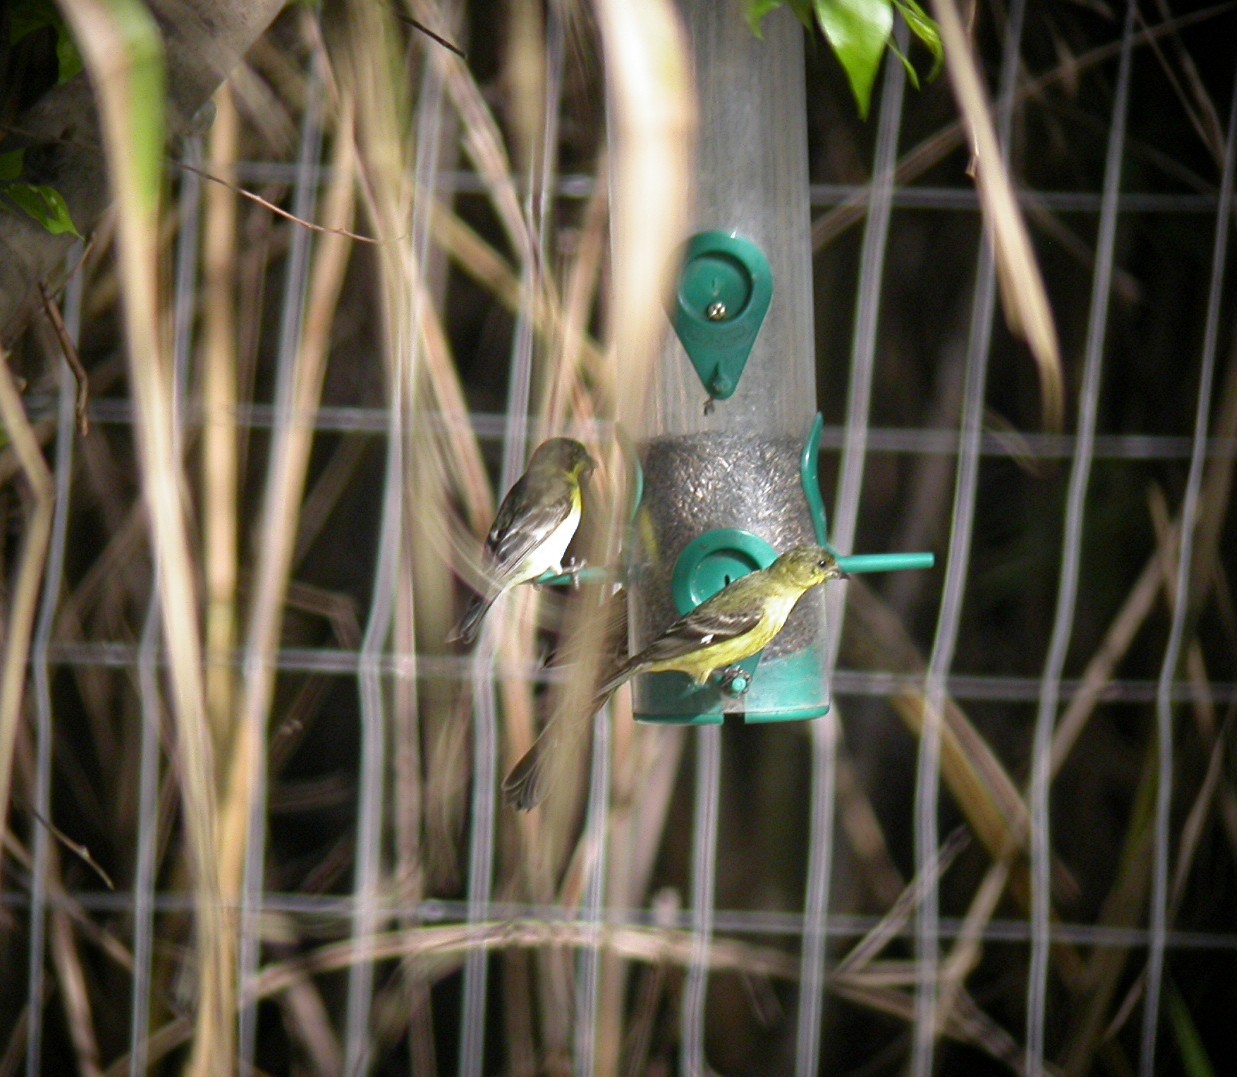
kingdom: Animalia
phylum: Chordata
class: Aves
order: Passeriformes
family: Fringillidae
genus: Spinus
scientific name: Spinus psaltria
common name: Lesser goldfinch
